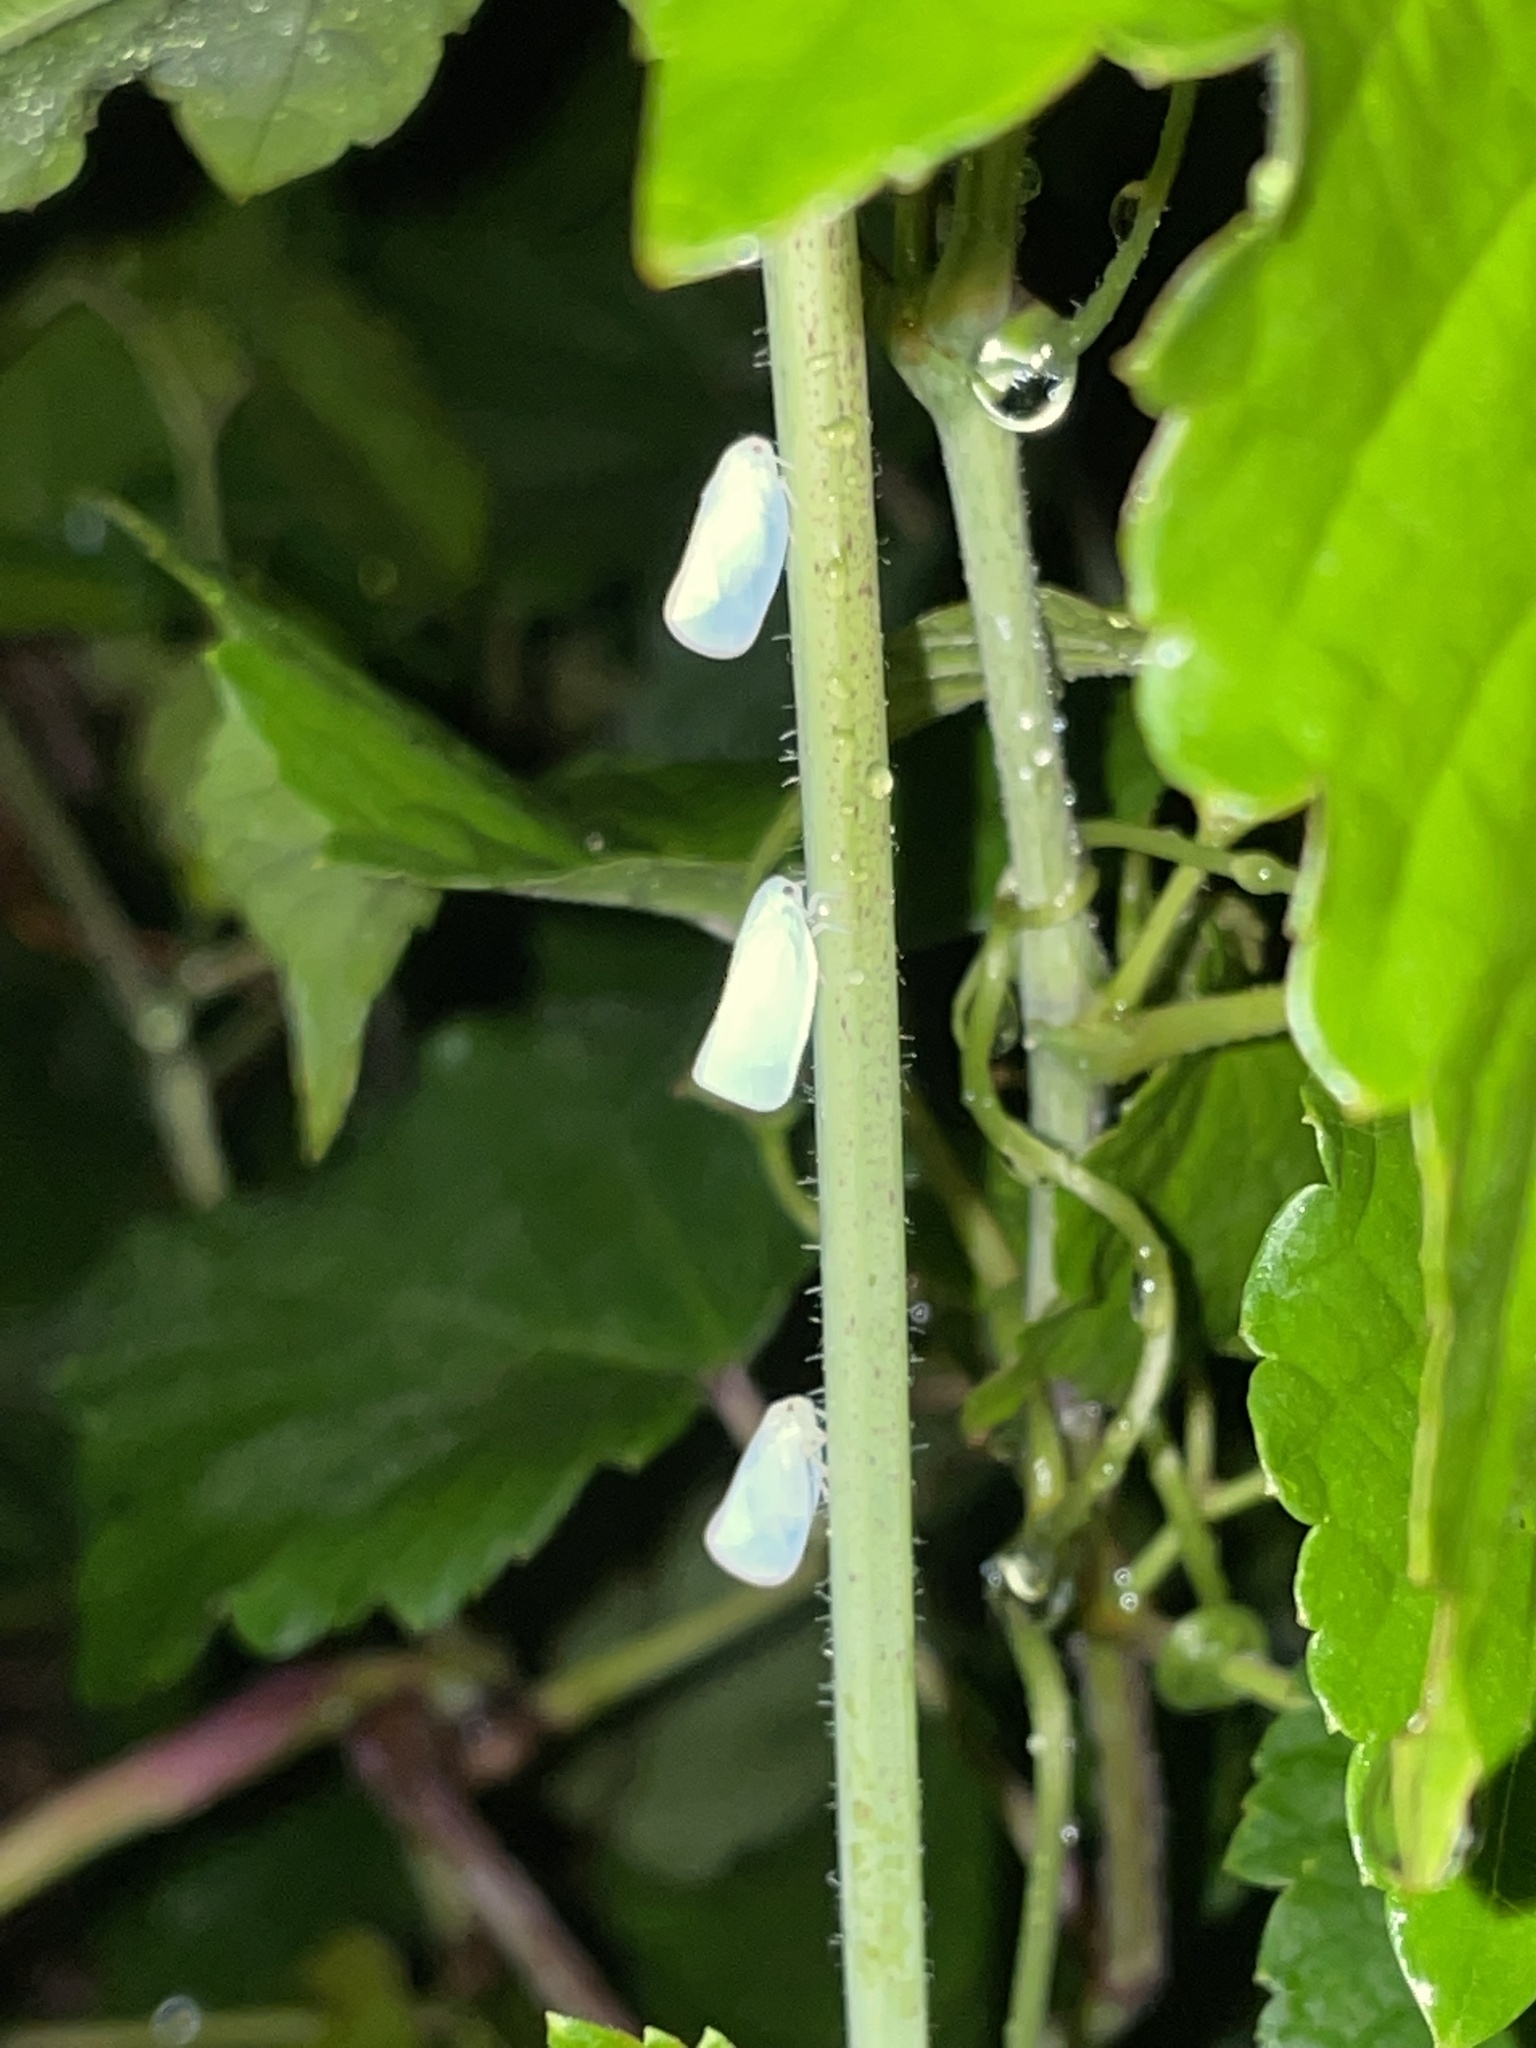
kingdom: Animalia
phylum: Arthropoda
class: Insecta
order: Hemiptera
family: Flatidae
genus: Ormenoides
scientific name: Ormenoides venusta
